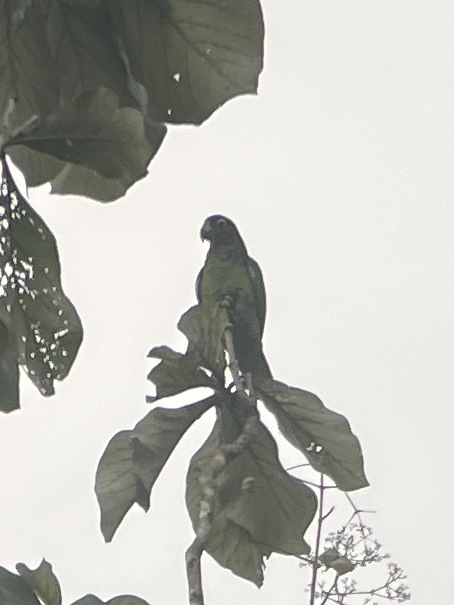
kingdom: Animalia
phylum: Chordata
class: Aves
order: Psittaciformes
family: Psittacidae
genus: Amazona
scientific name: Amazona vittata
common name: Puerto rican amazon
